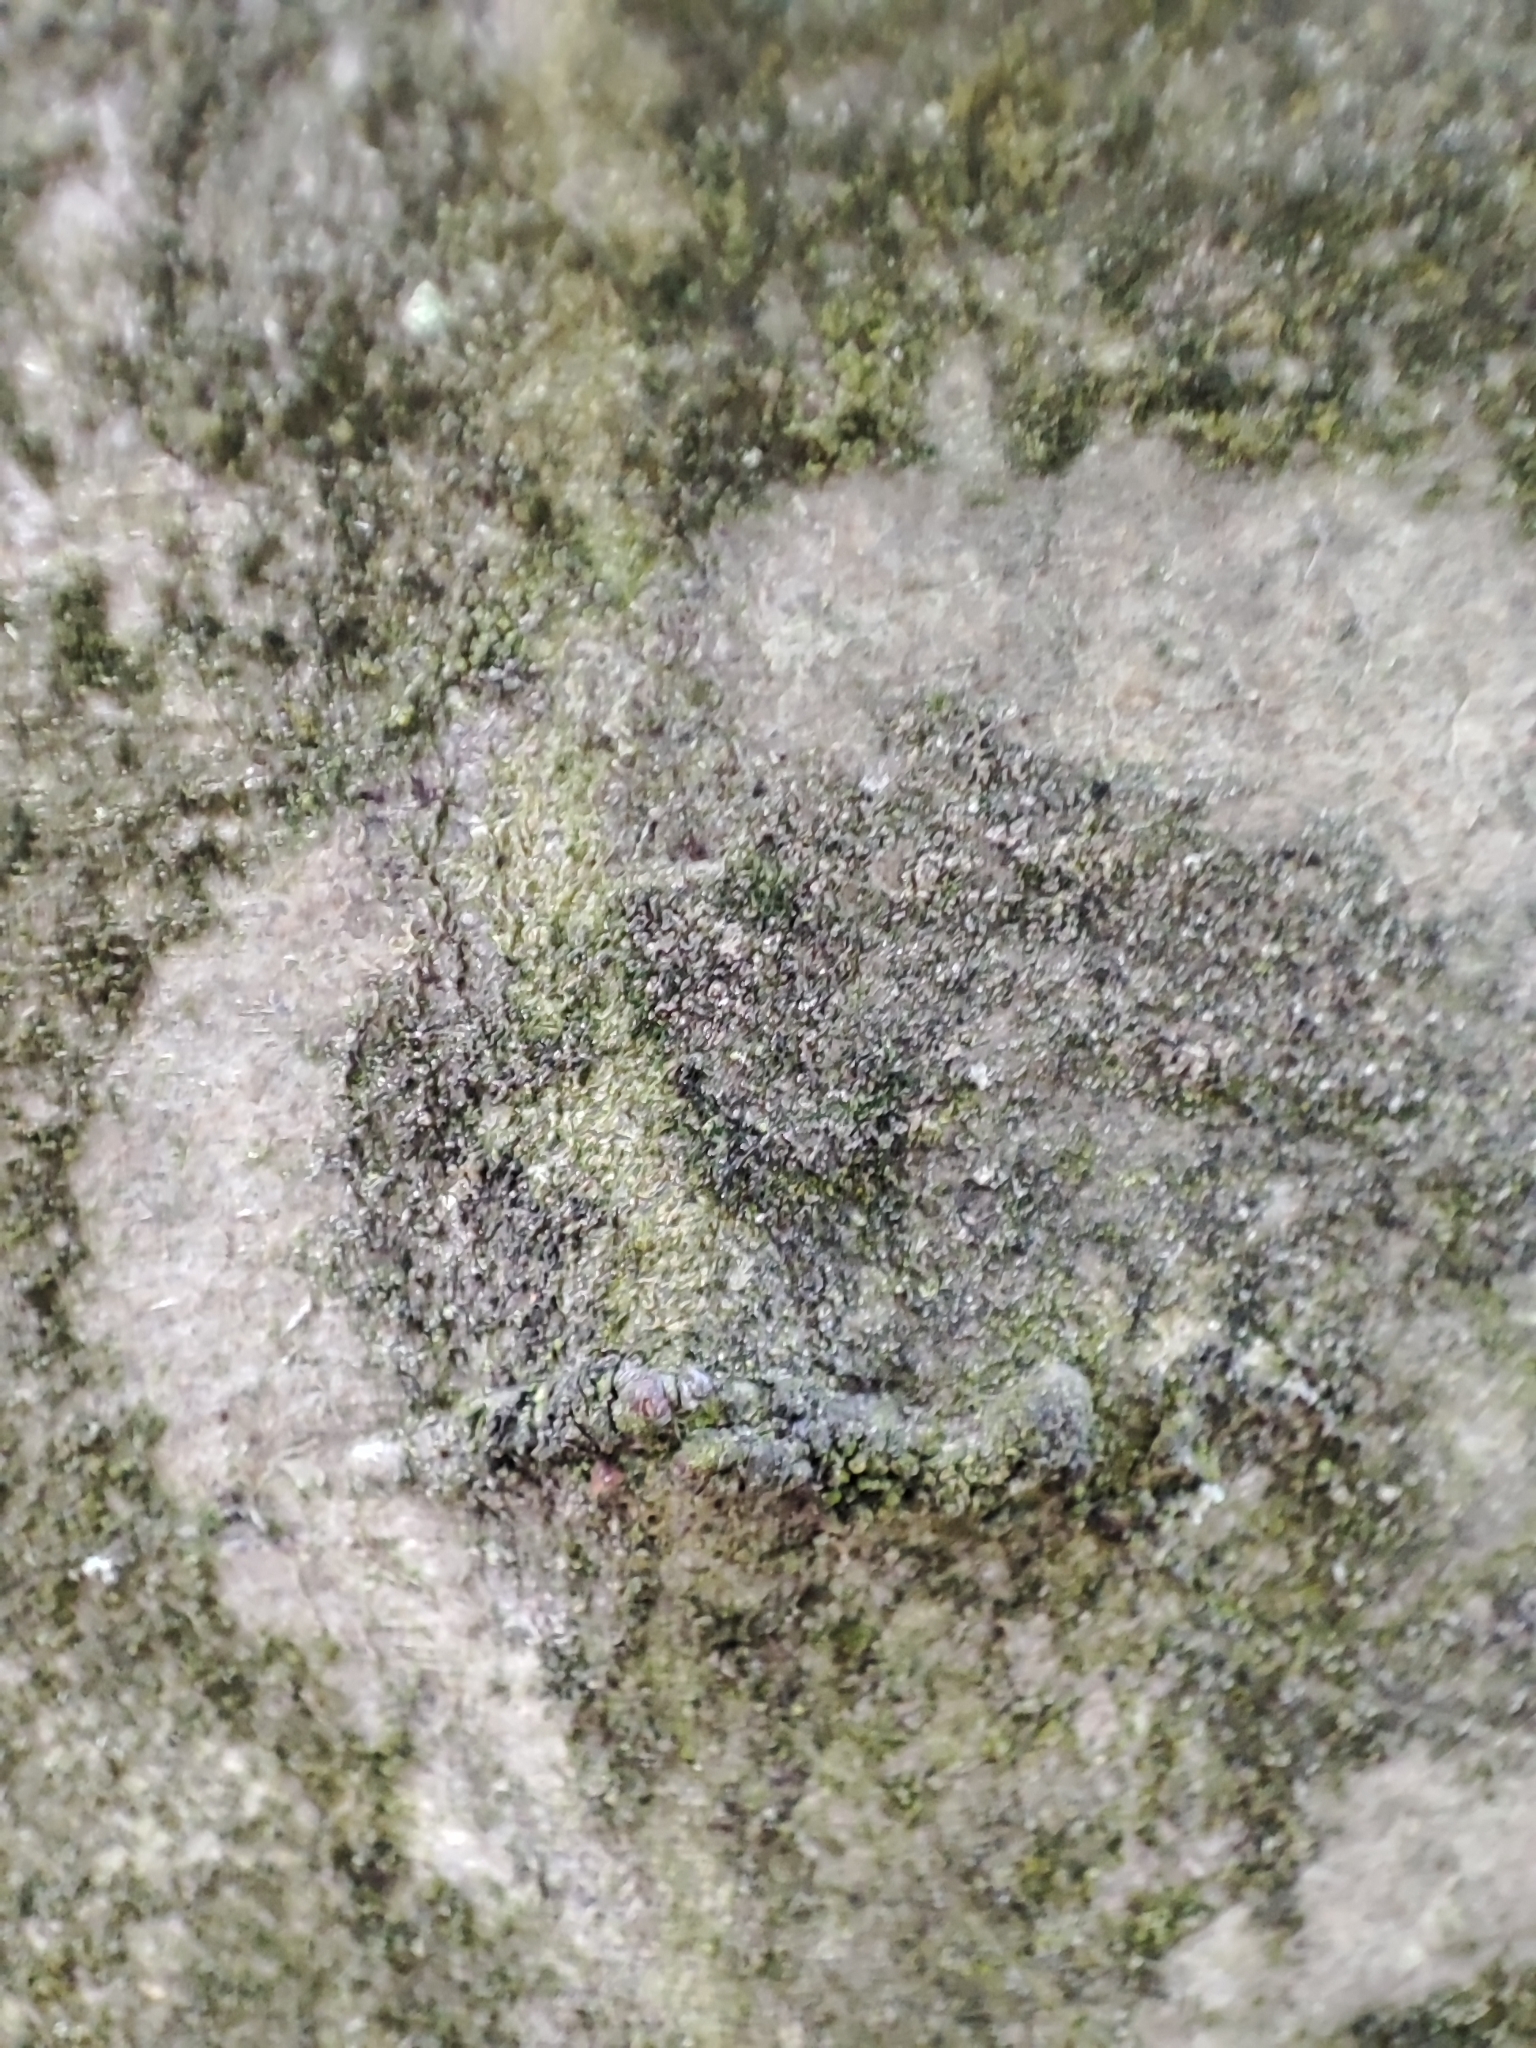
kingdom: Fungi
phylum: Basidiomycota
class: Agaricomycetes
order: Atheliales
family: Atheliaceae
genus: Athelia
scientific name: Athelia arachnoidea
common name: Candelabra duster
